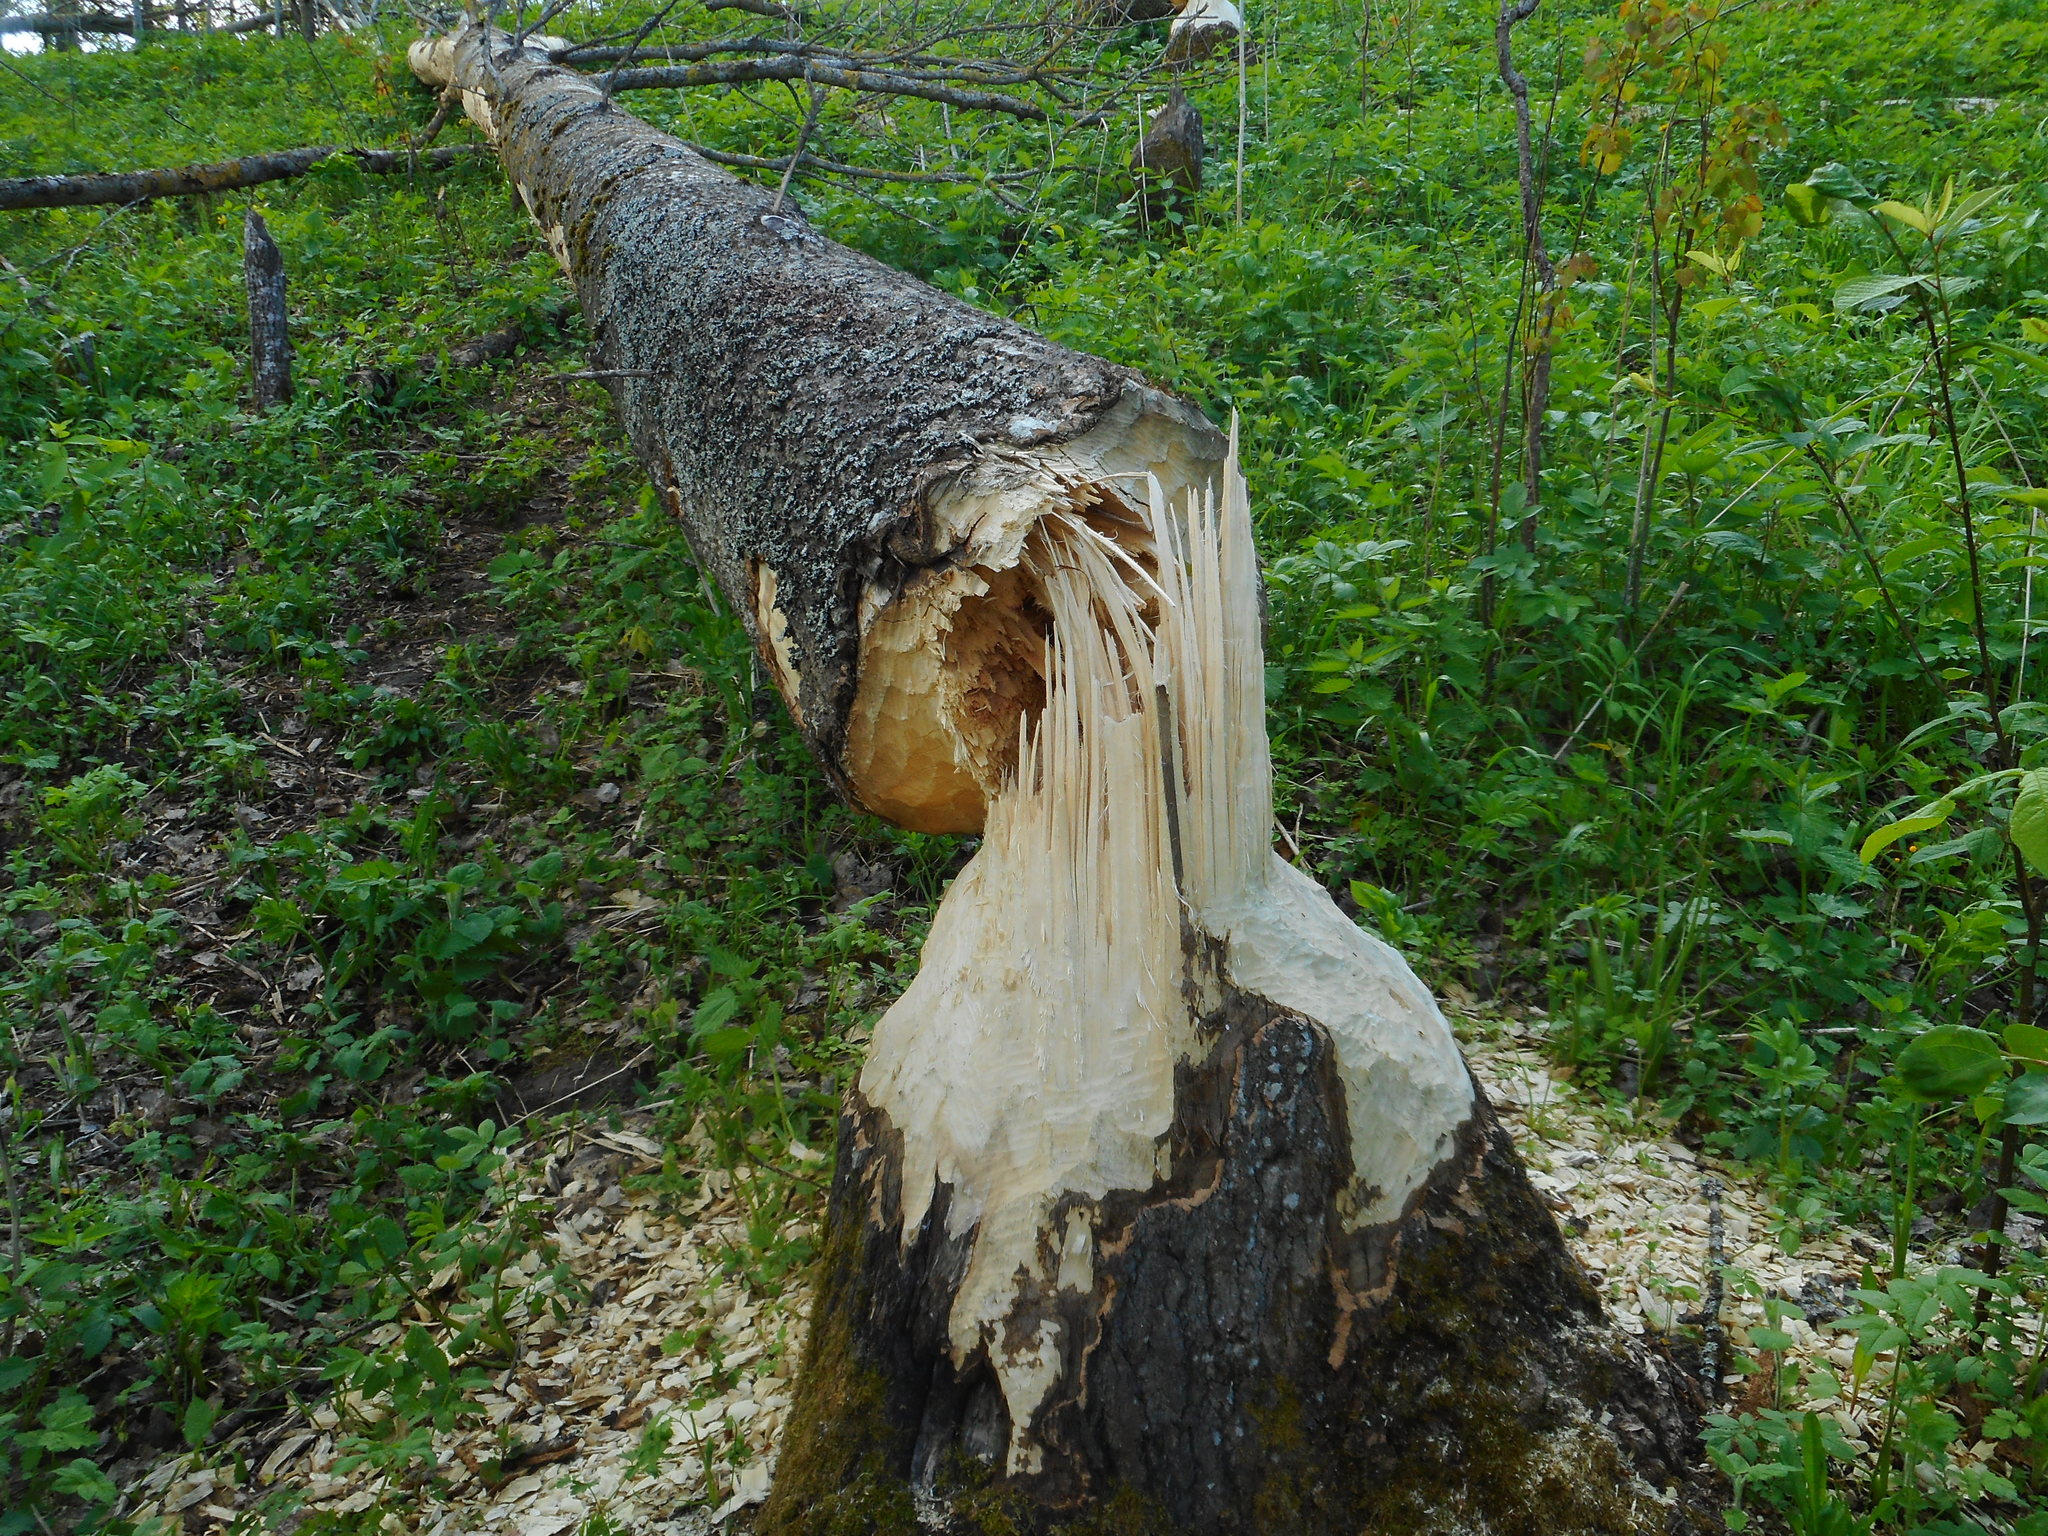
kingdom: Animalia
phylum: Chordata
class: Mammalia
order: Rodentia
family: Castoridae
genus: Castor
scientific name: Castor fiber
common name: Eurasian beaver
